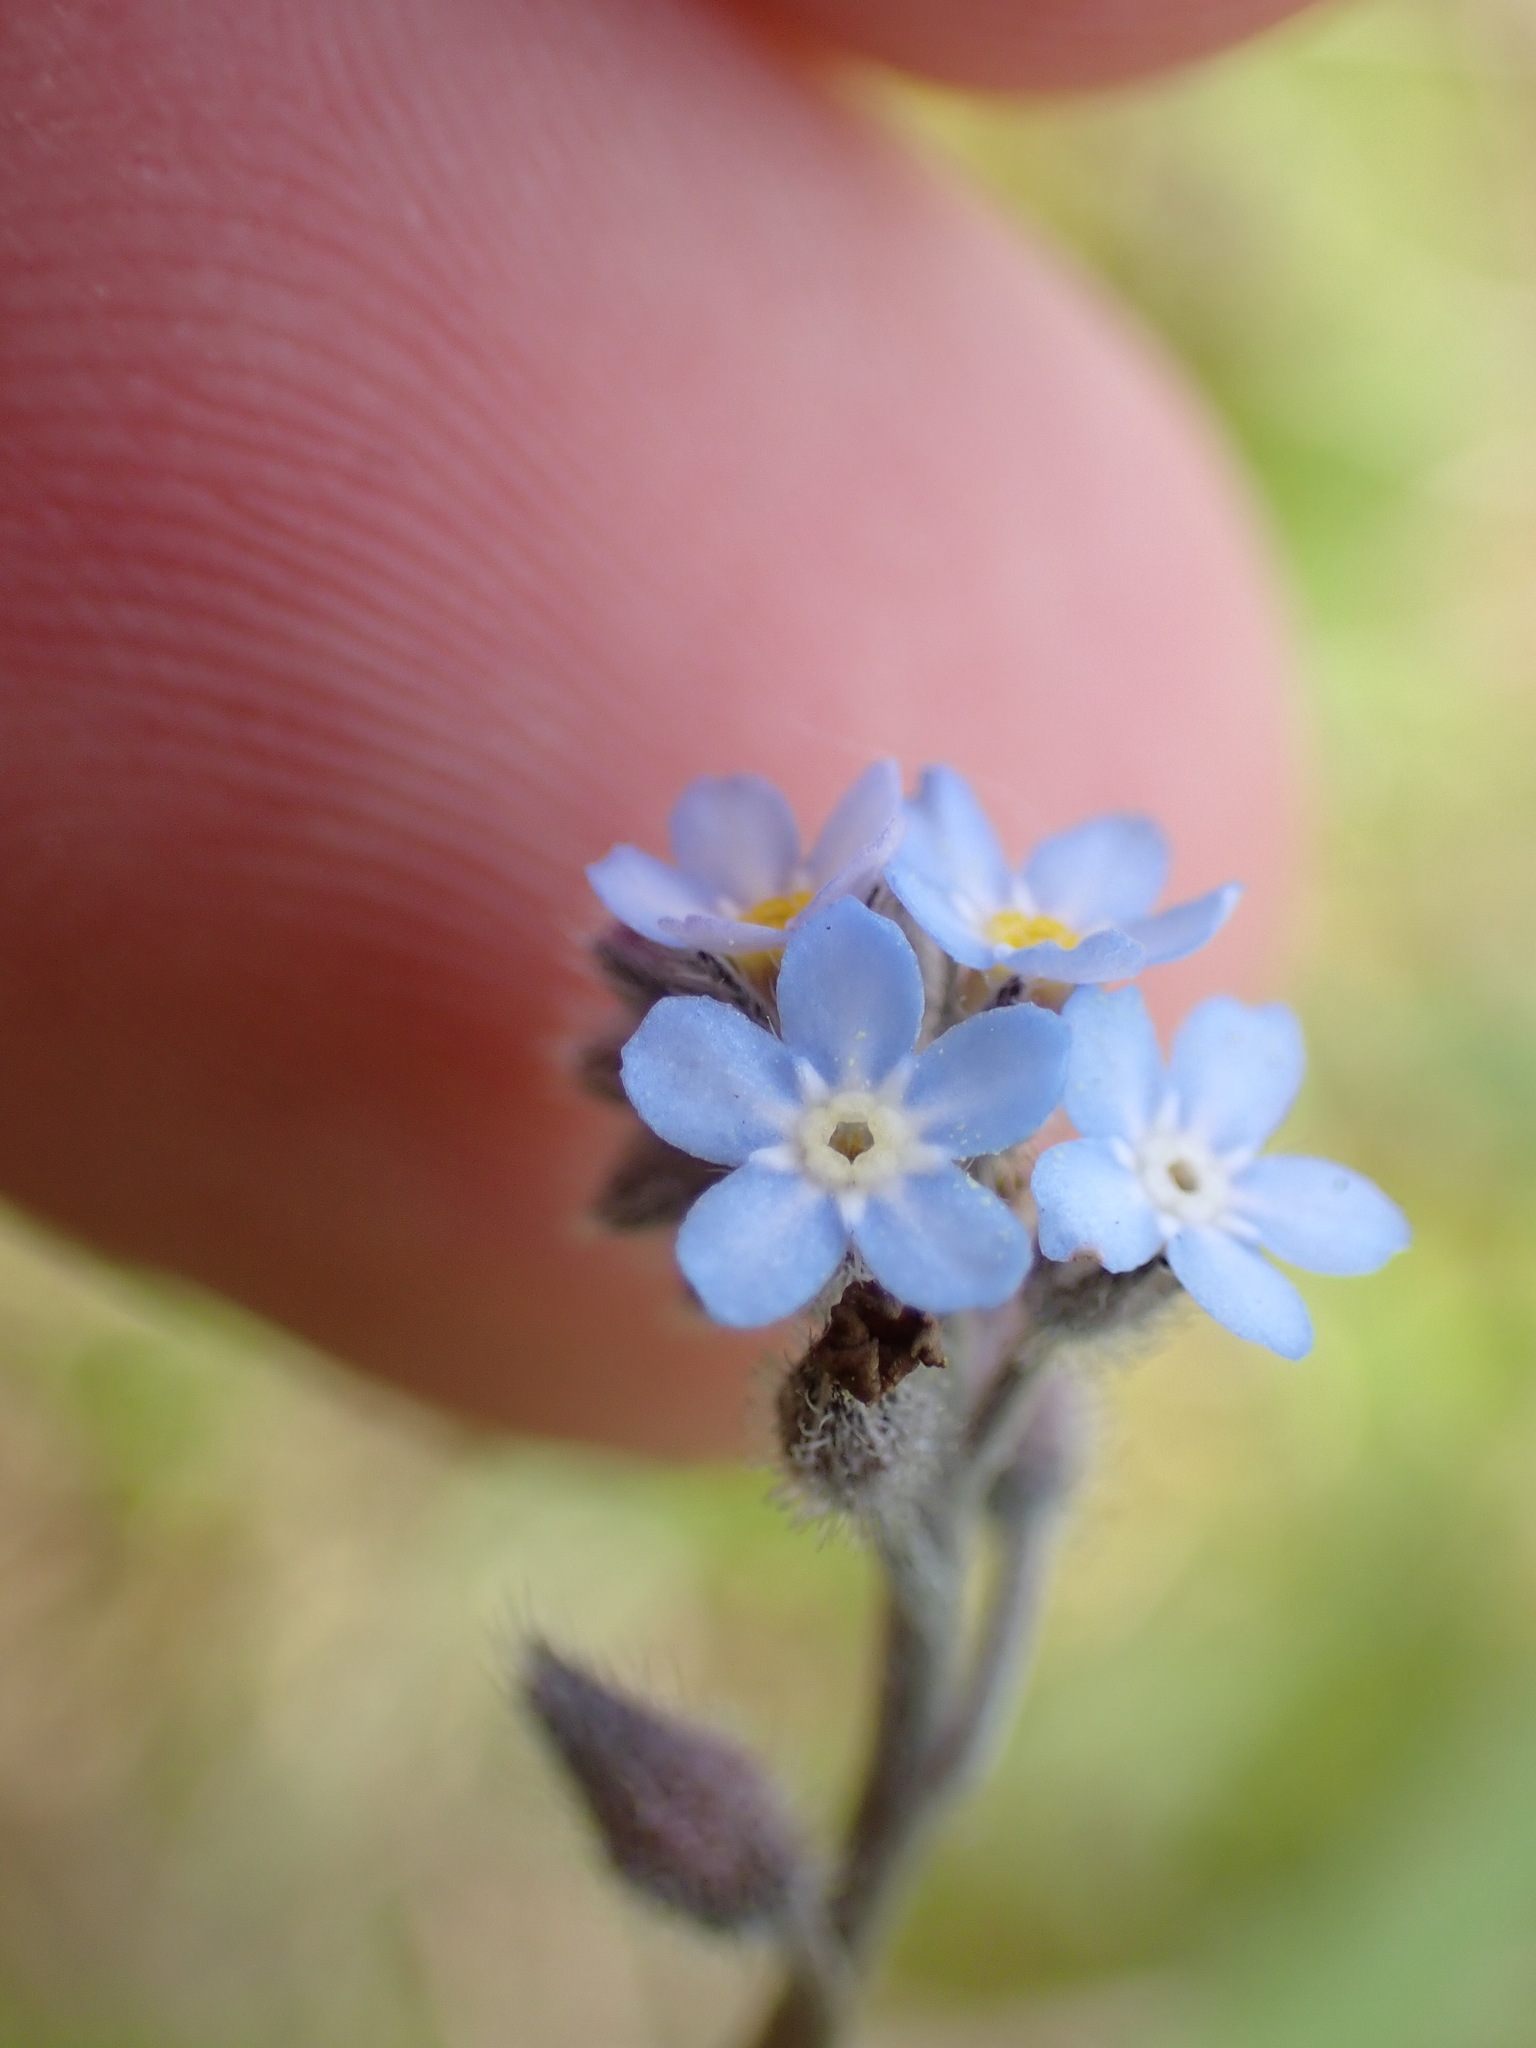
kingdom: Plantae
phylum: Tracheophyta
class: Magnoliopsida
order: Boraginales
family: Boraginaceae
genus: Myosotis
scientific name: Myosotis arvensis
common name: Field forget-me-not
